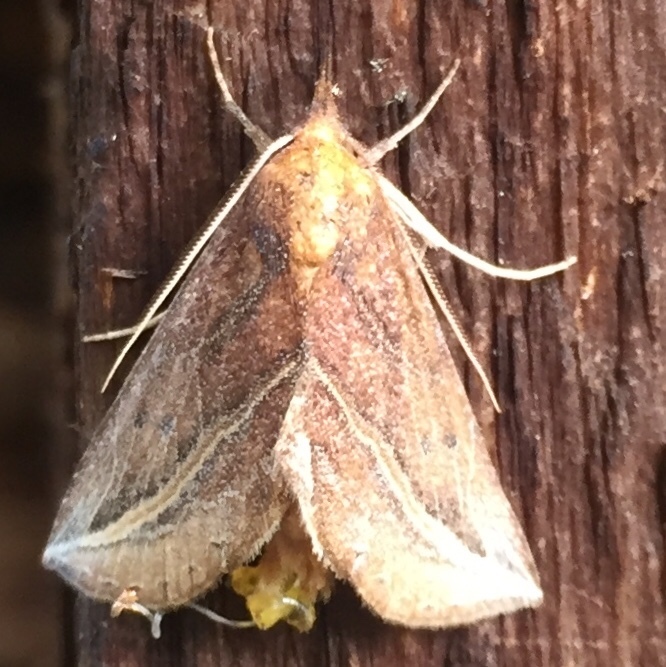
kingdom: Animalia
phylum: Arthropoda
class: Insecta
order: Lepidoptera
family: Erebidae
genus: Phyprosopus
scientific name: Phyprosopus callitrichoides
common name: Curved-lined owlet
